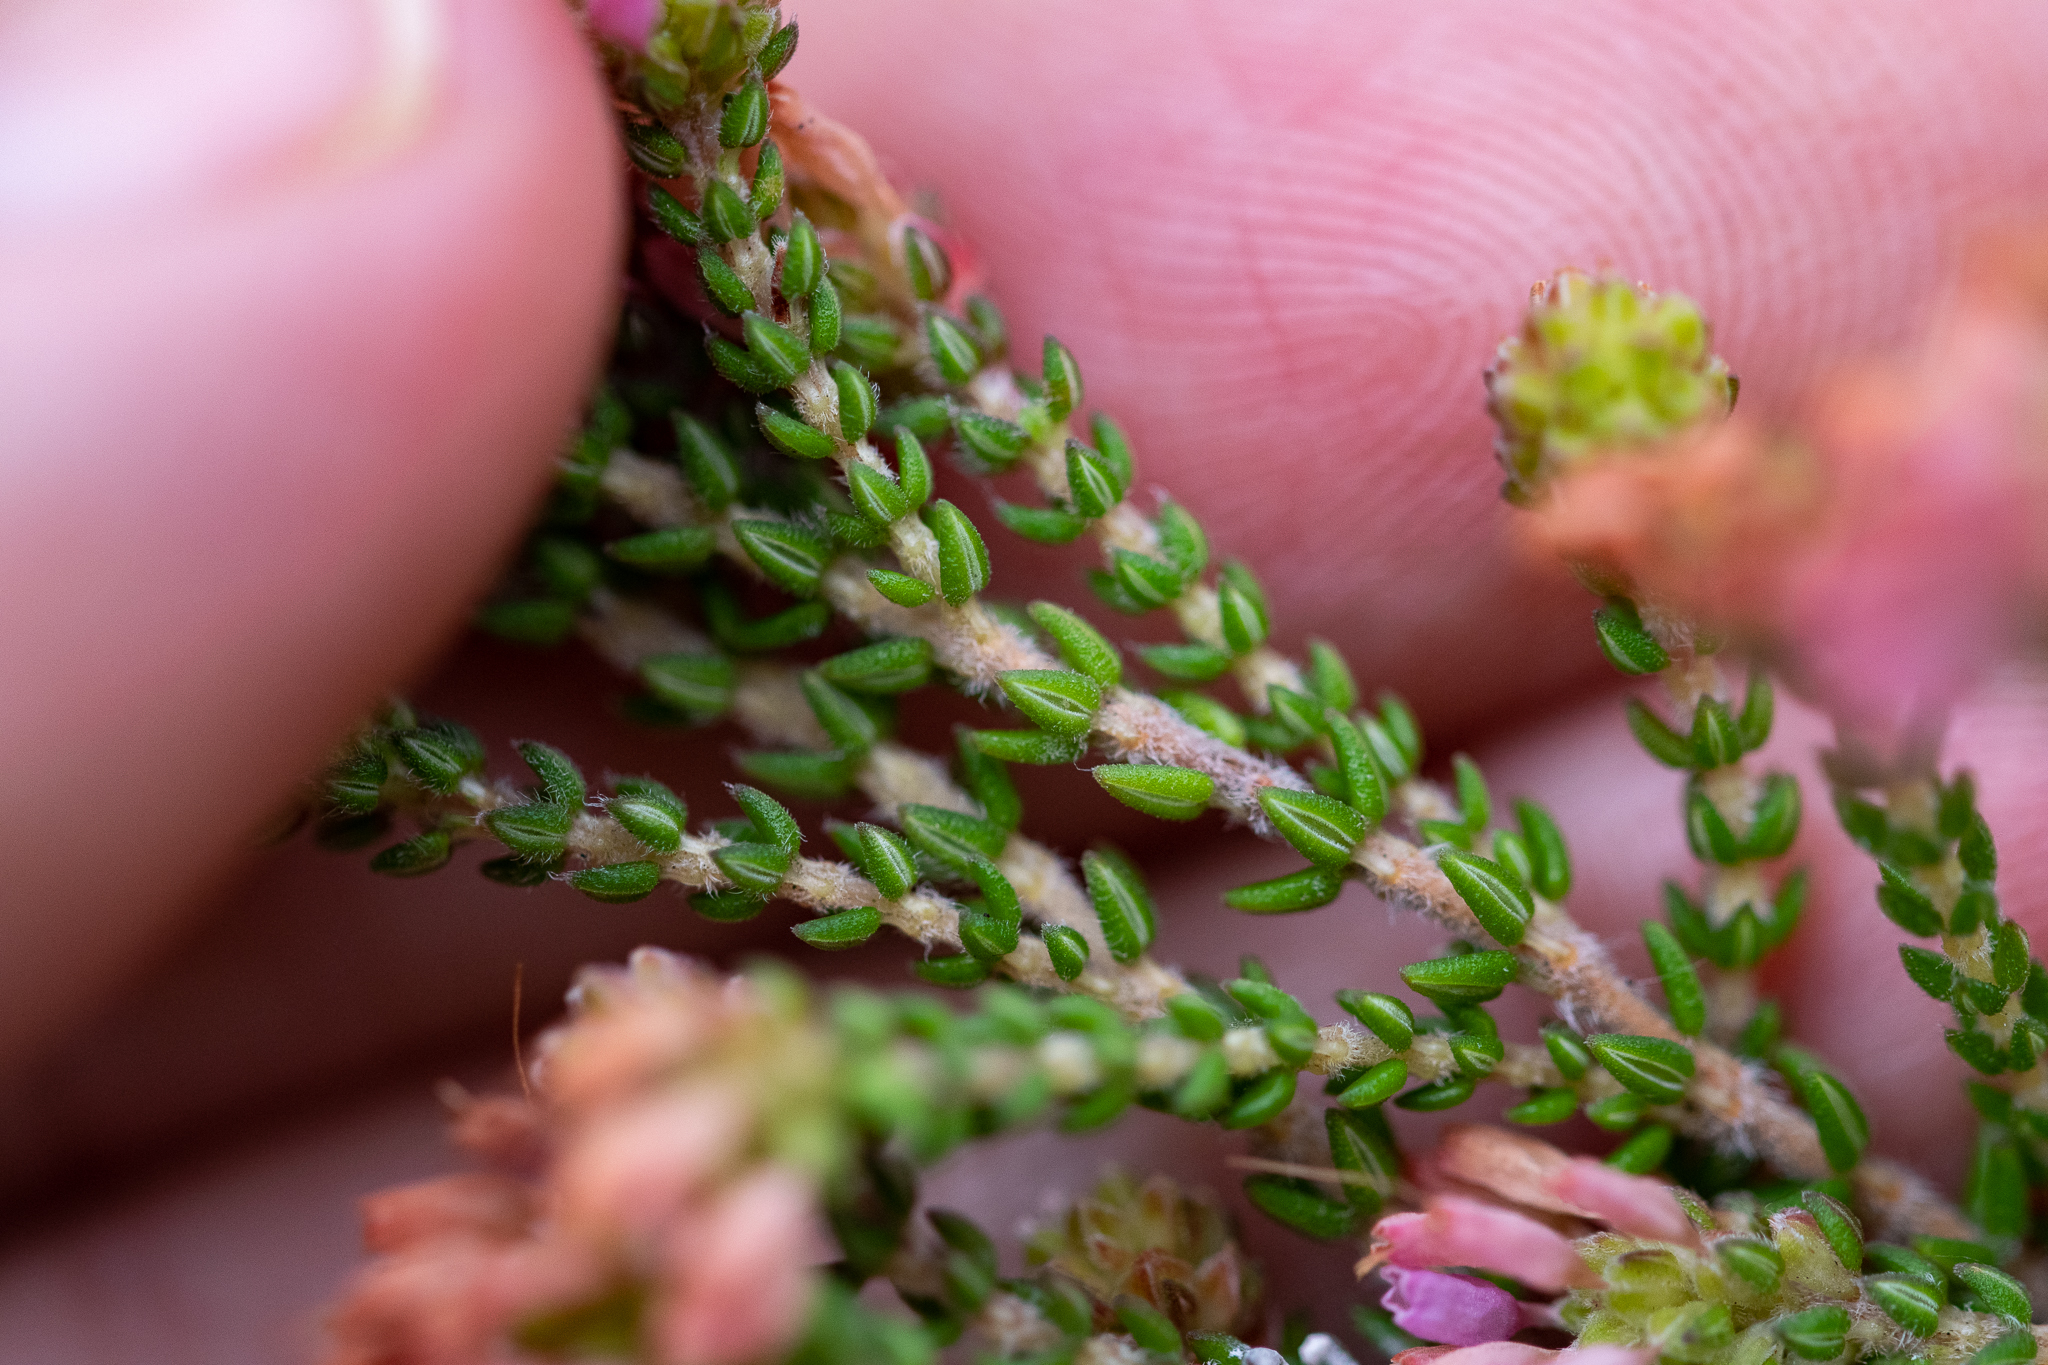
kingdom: Plantae
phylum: Tracheophyta
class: Magnoliopsida
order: Ericales
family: Ericaceae
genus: Erica
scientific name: Erica globiceps
